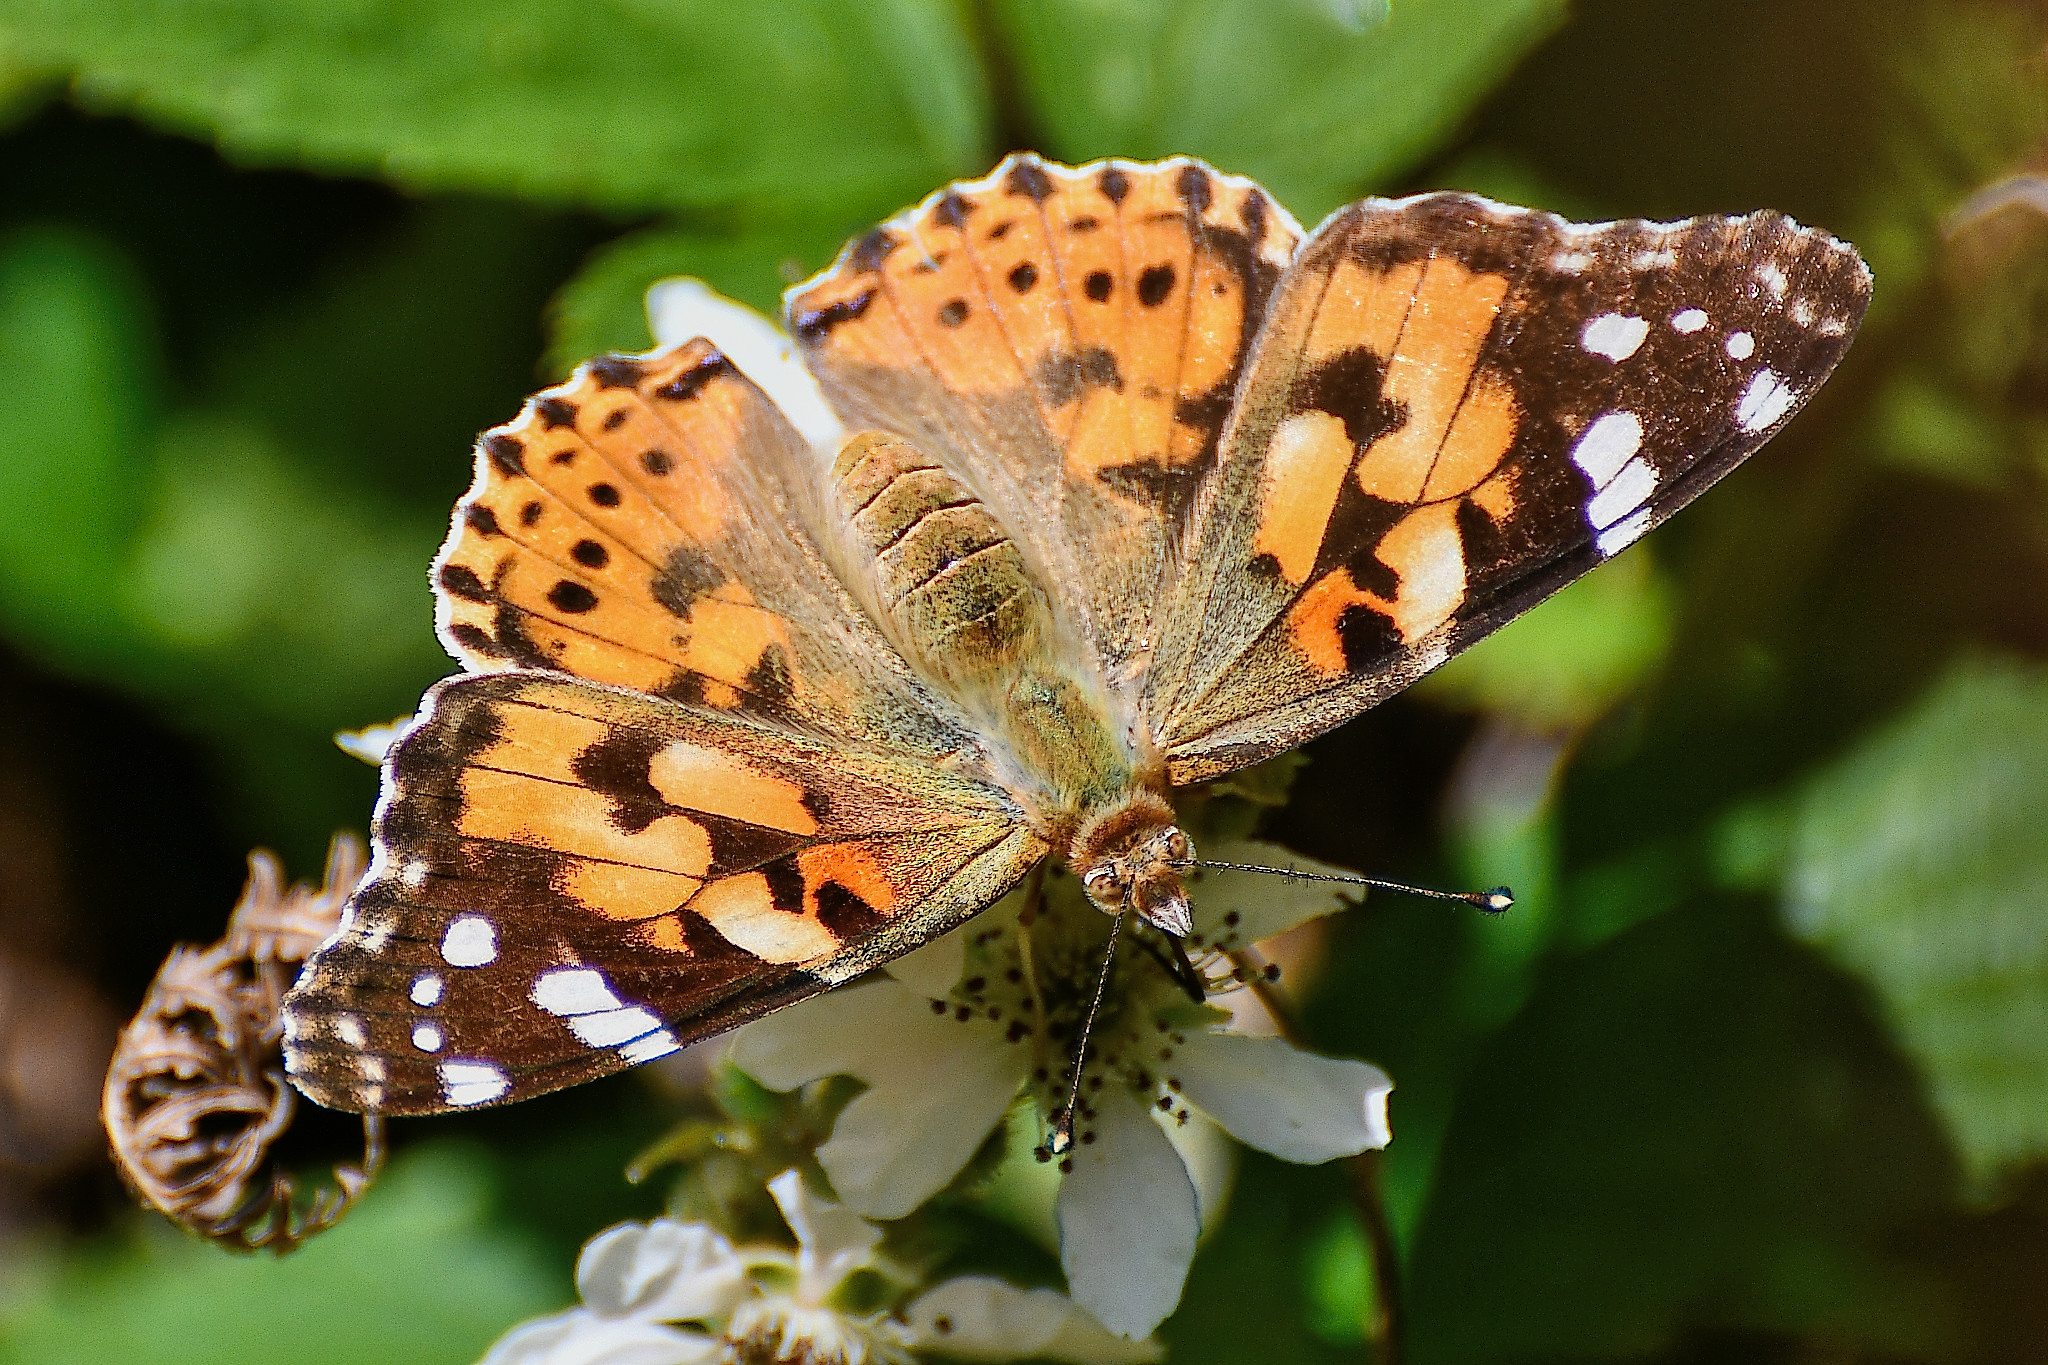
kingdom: Animalia
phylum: Arthropoda
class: Insecta
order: Lepidoptera
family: Nymphalidae
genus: Vanessa
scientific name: Vanessa cardui
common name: Painted lady
